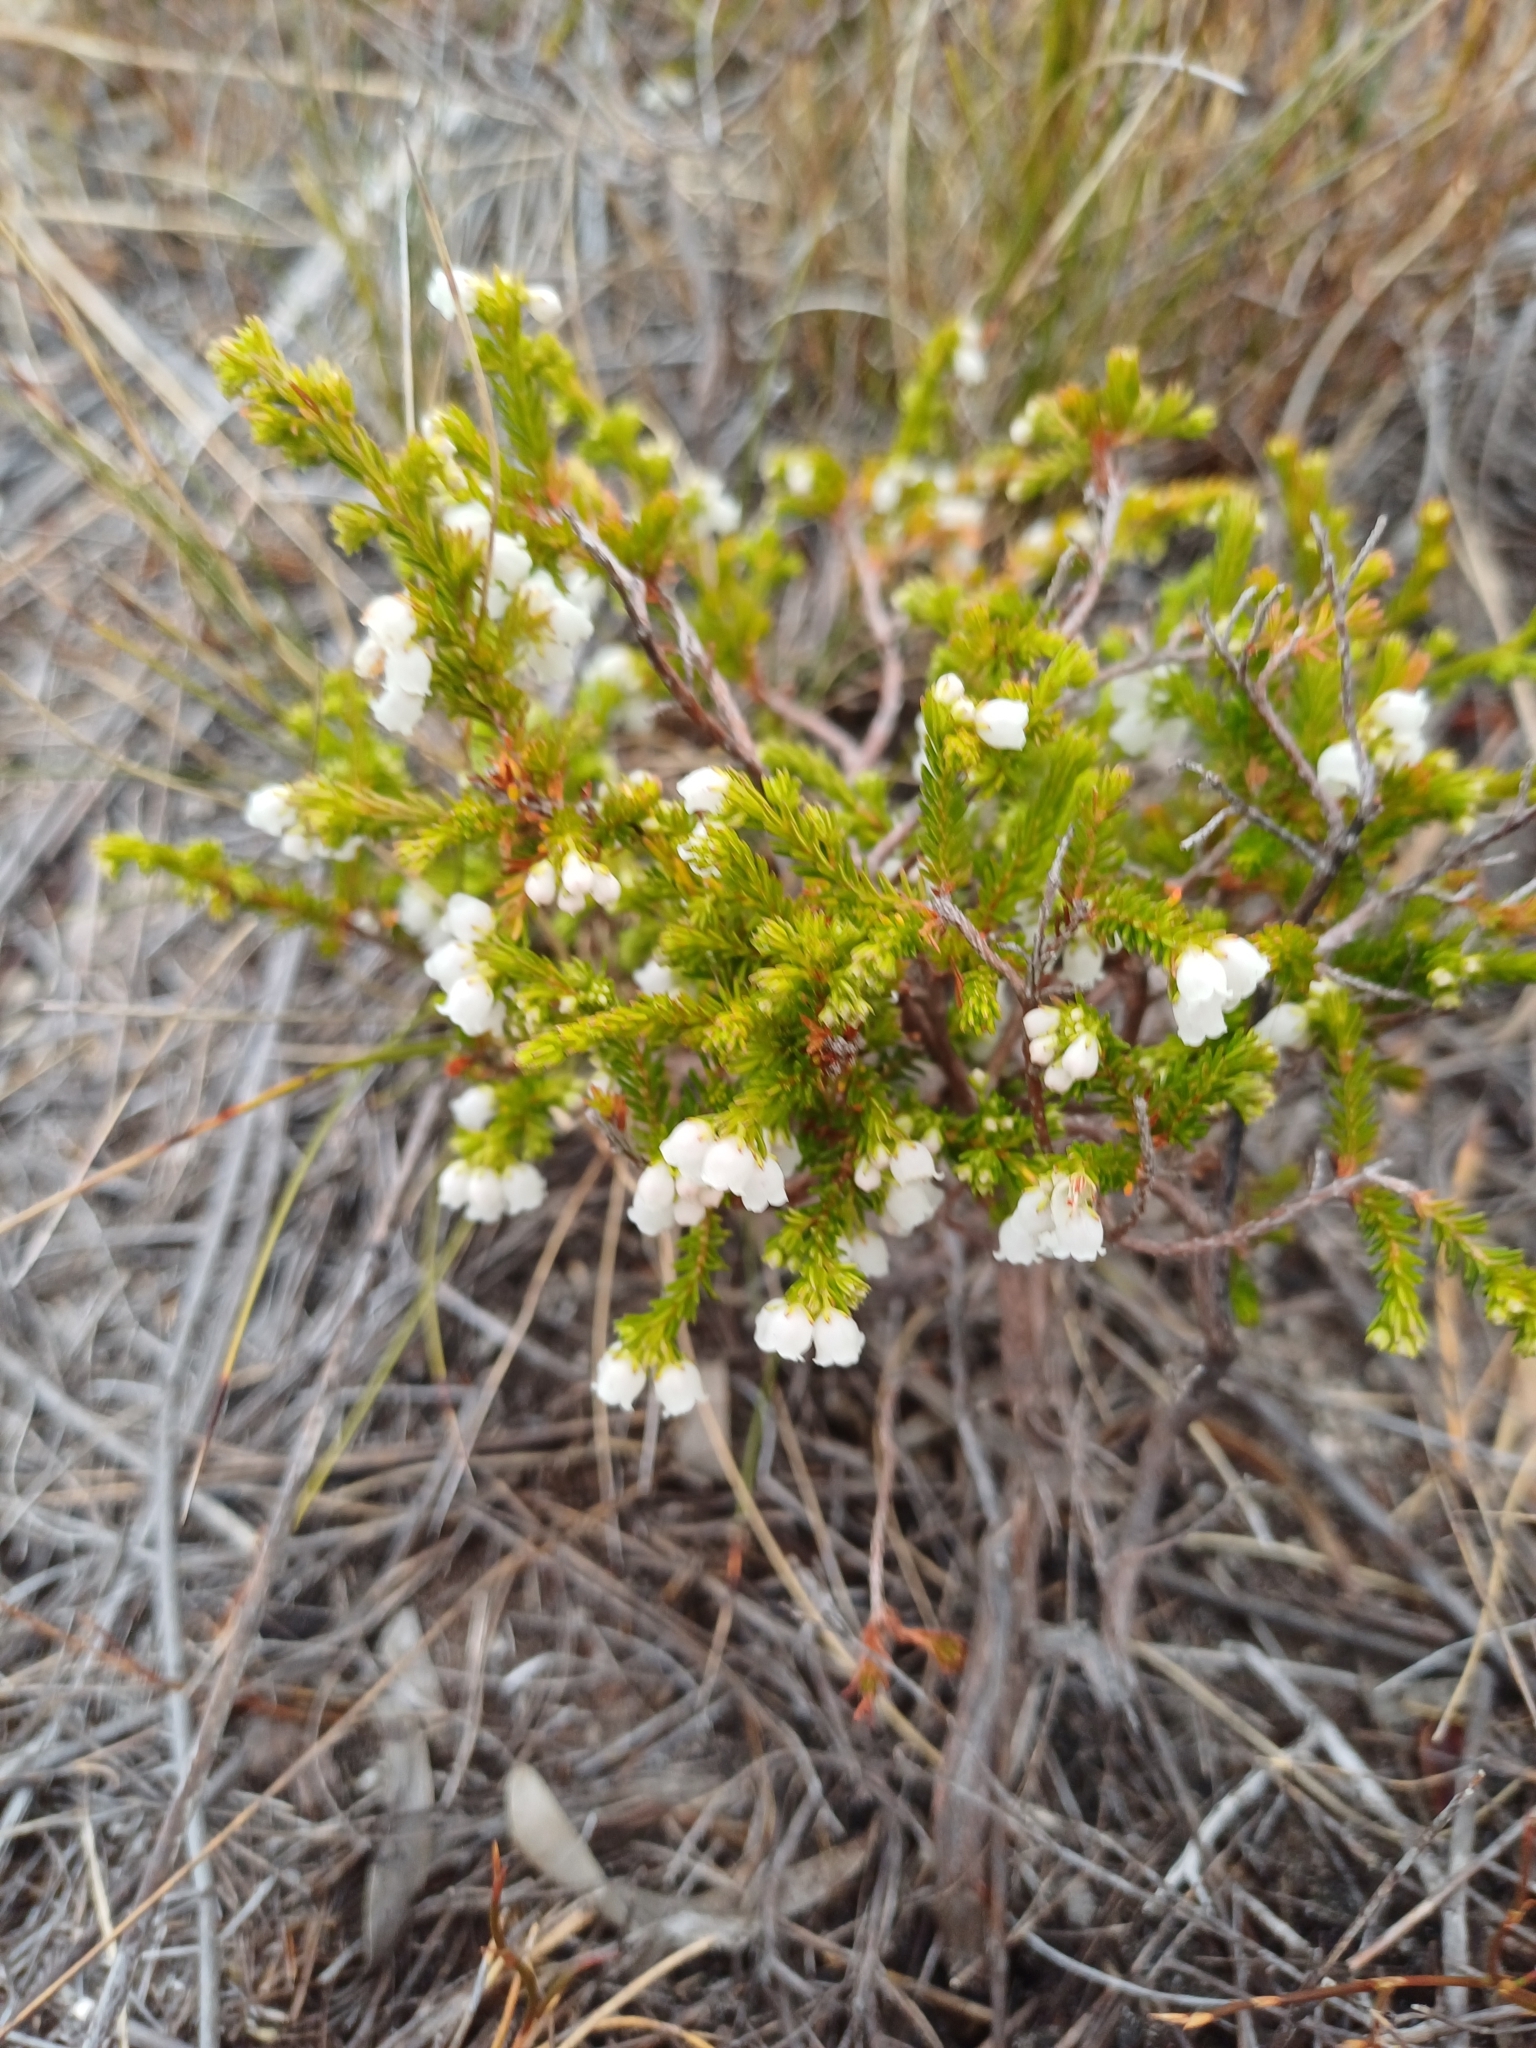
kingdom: Plantae
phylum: Tracheophyta
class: Magnoliopsida
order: Ericales
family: Ericaceae
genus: Erica
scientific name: Erica subdivaricata
